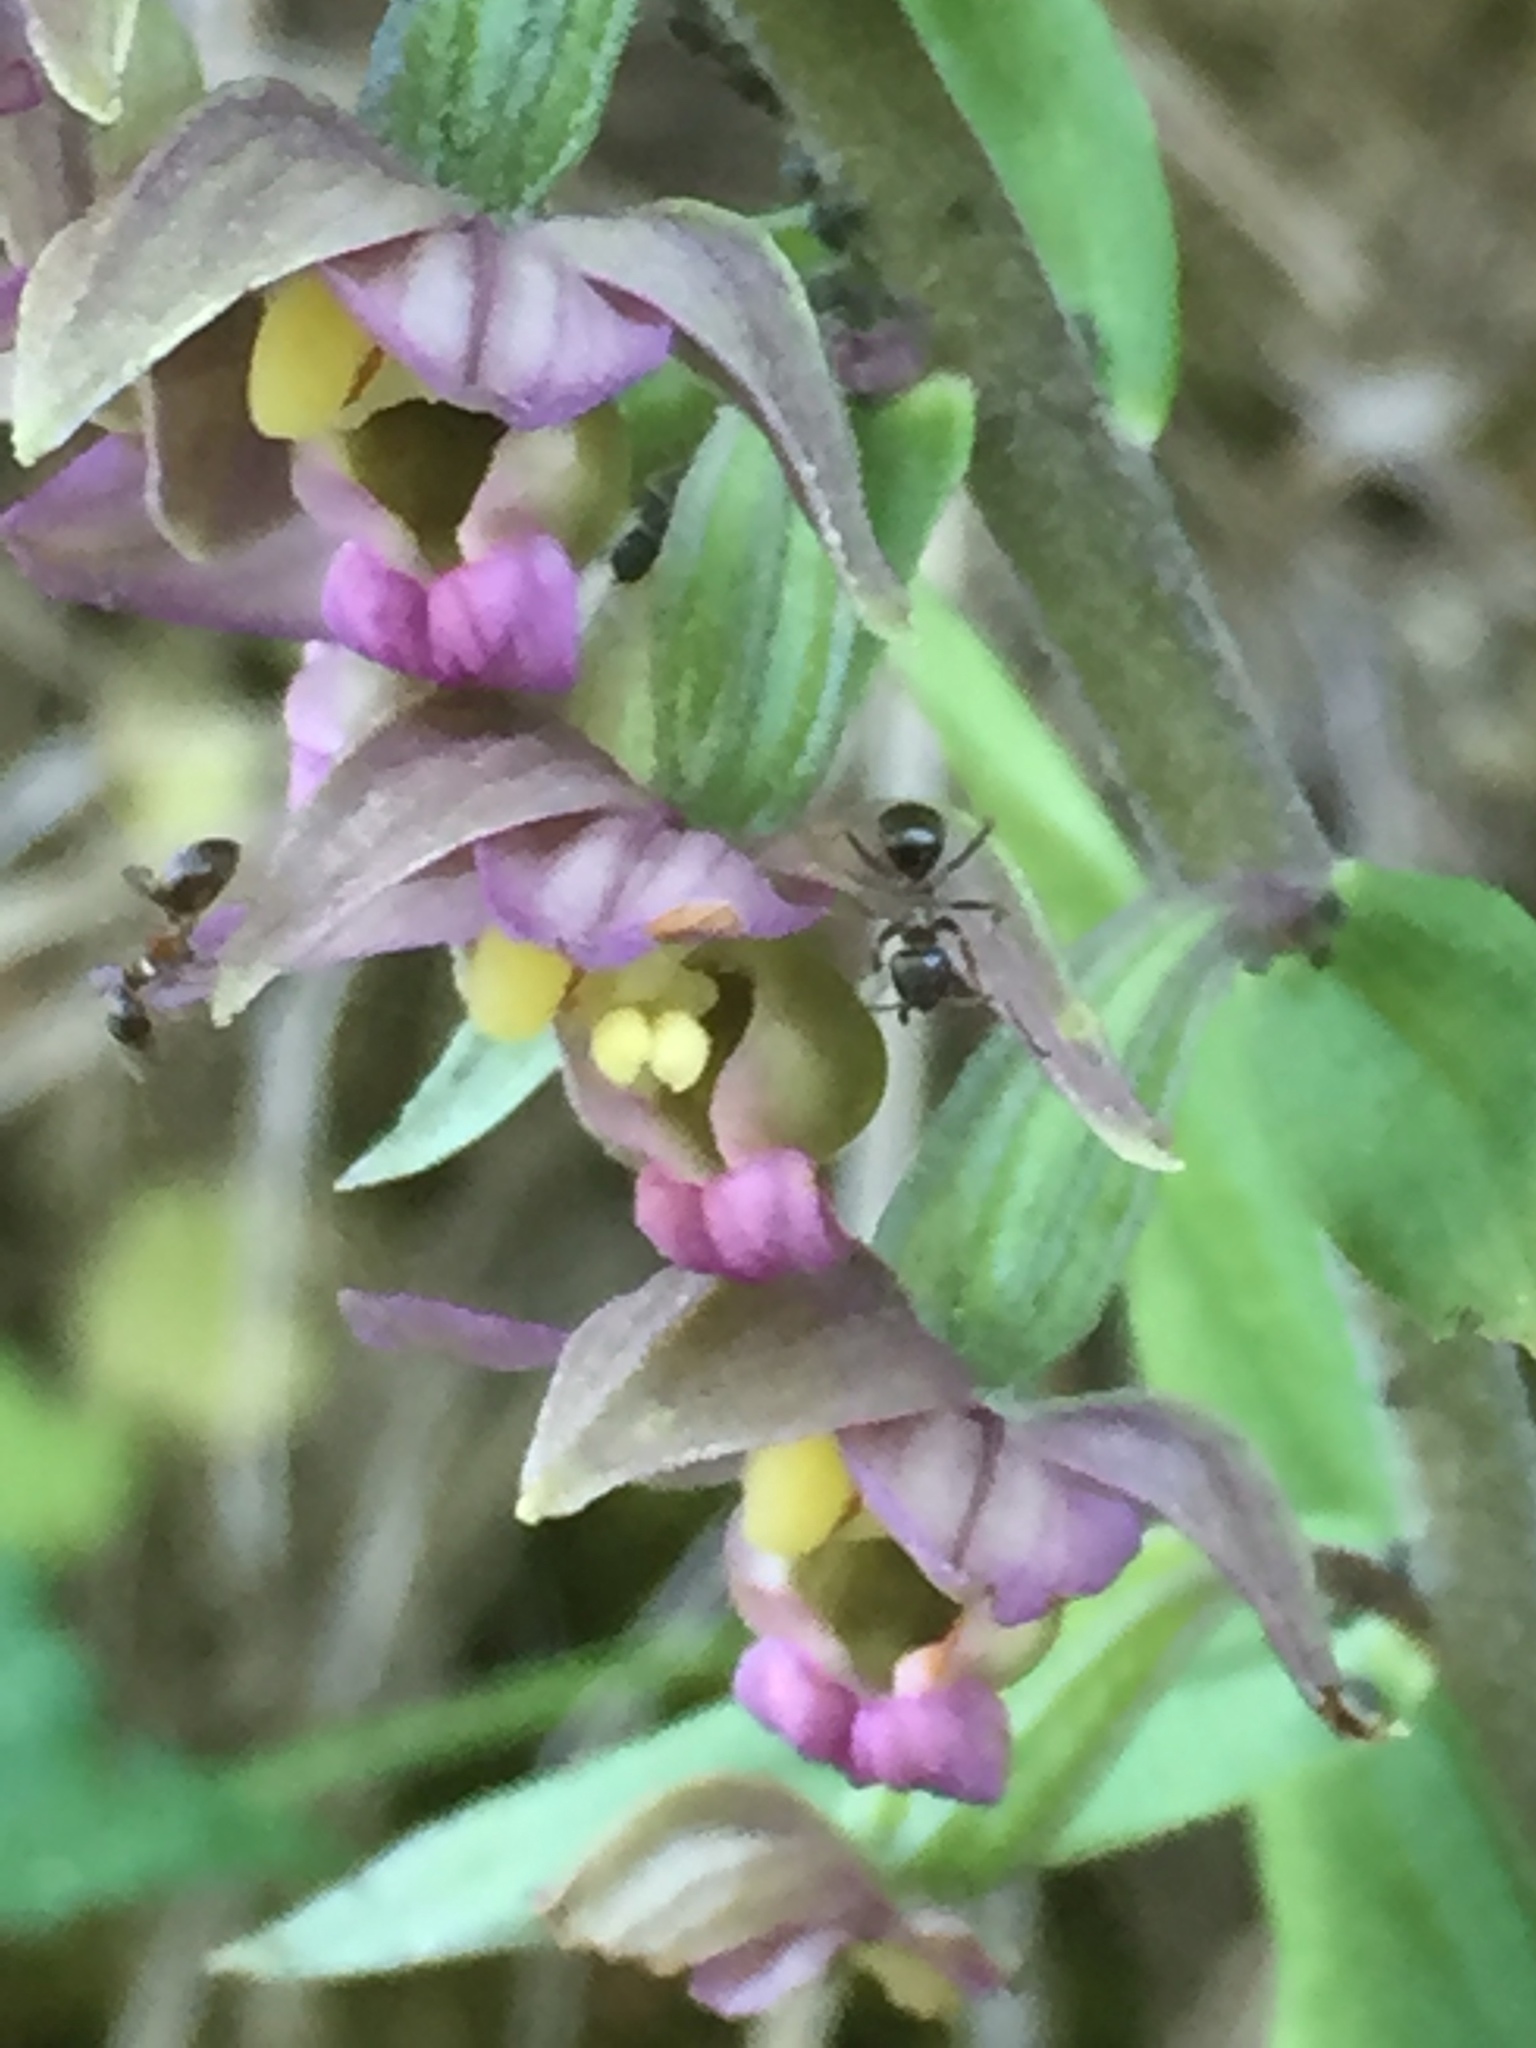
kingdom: Plantae
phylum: Tracheophyta
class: Liliopsida
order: Asparagales
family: Orchidaceae
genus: Epipactis
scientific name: Epipactis helleborine
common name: Broad-leaved helleborine
